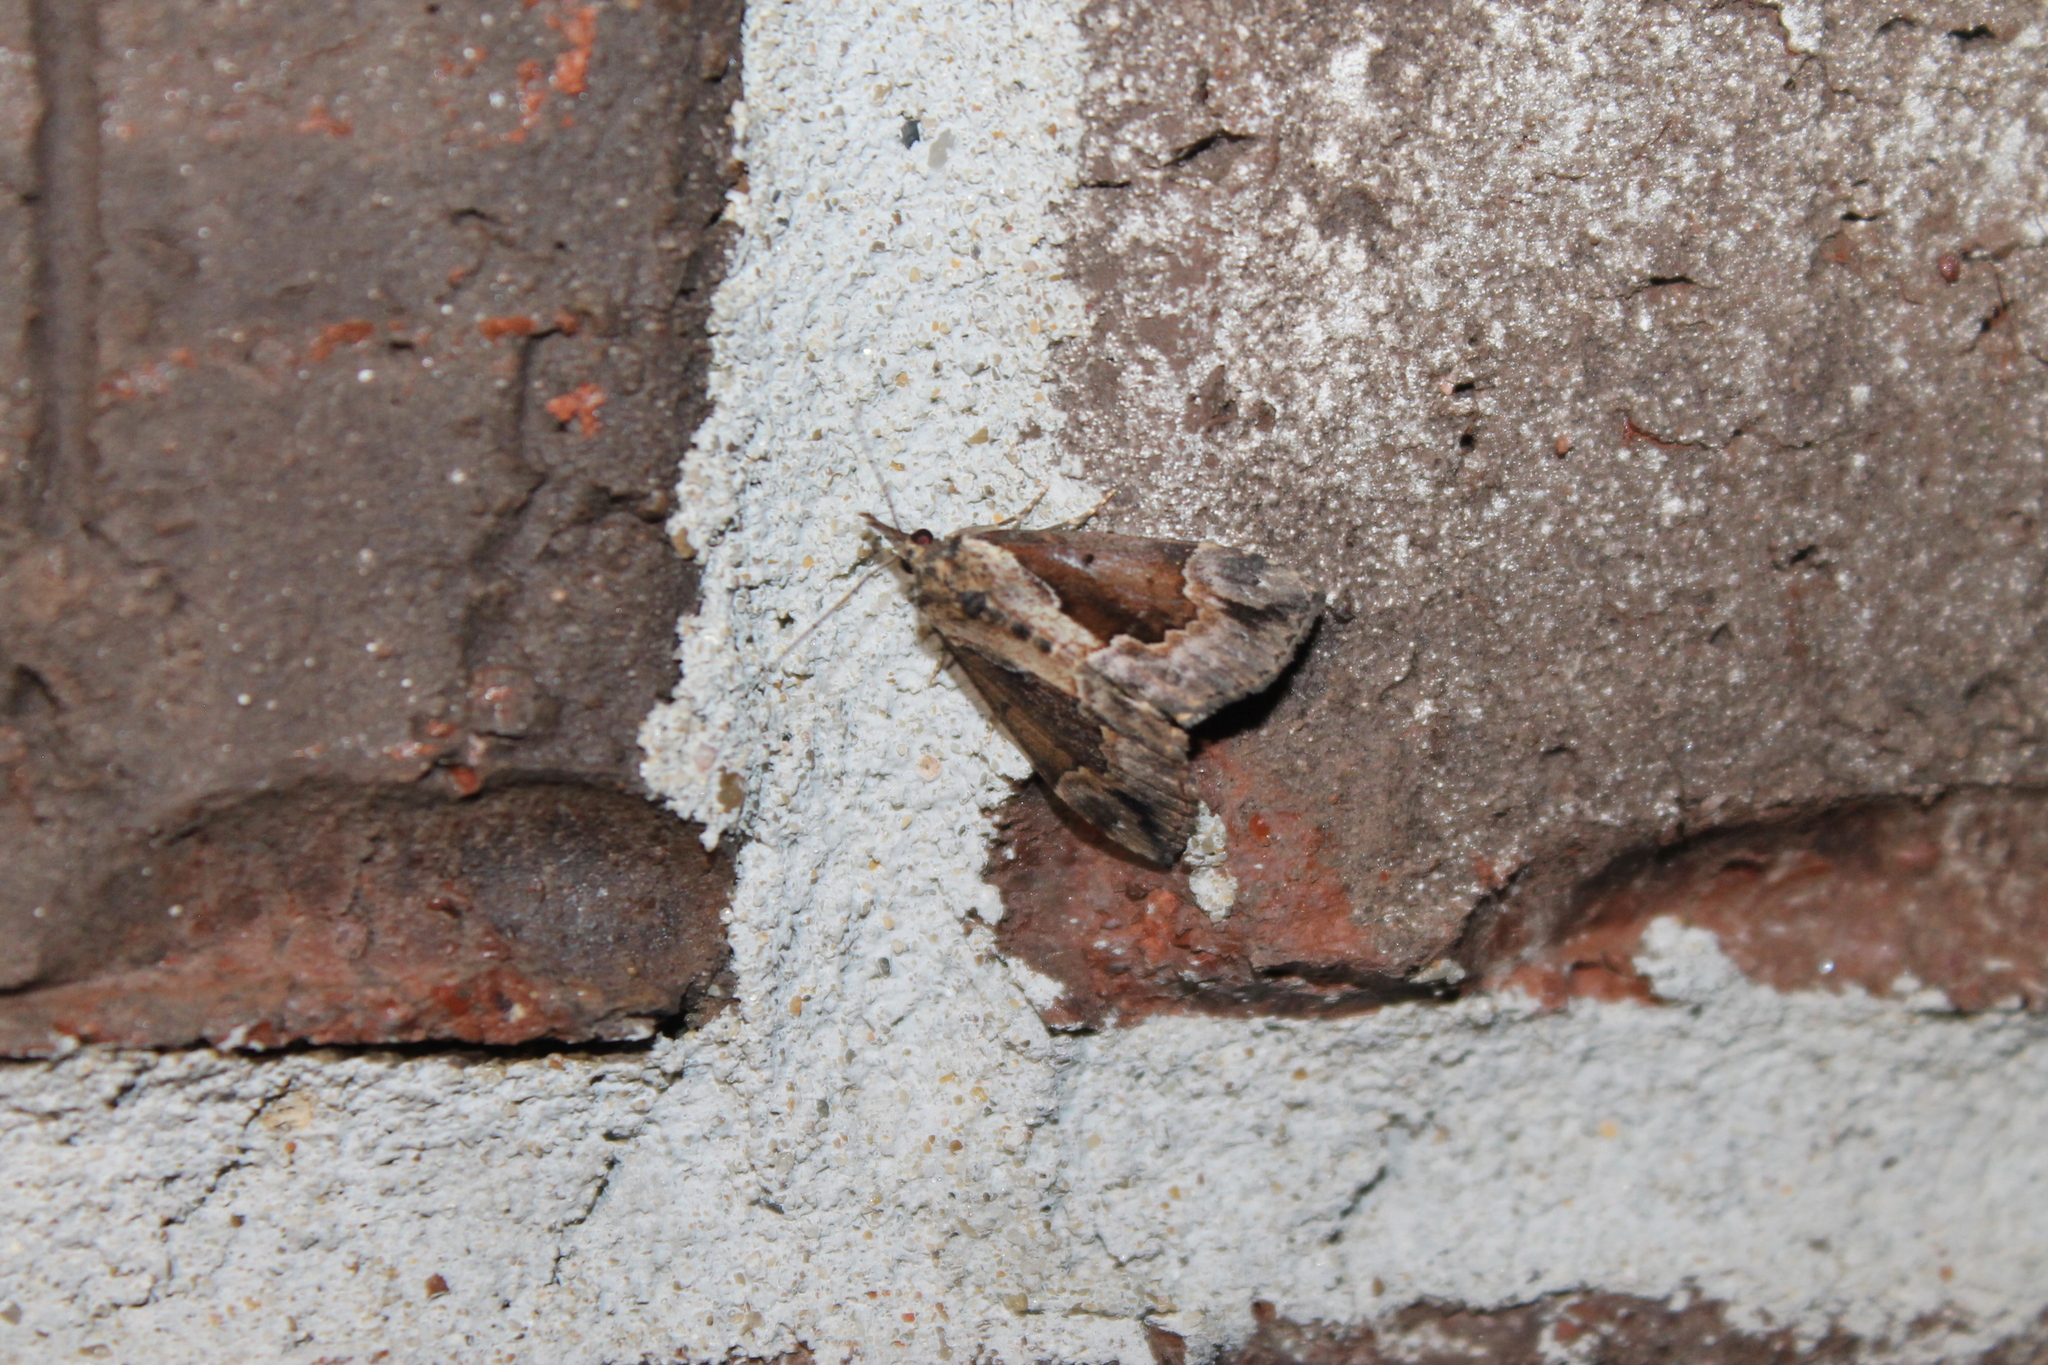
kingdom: Animalia
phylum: Arthropoda
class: Insecta
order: Lepidoptera
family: Erebidae
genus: Hypena
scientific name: Hypena baltimoralis
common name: Baltimore snout
